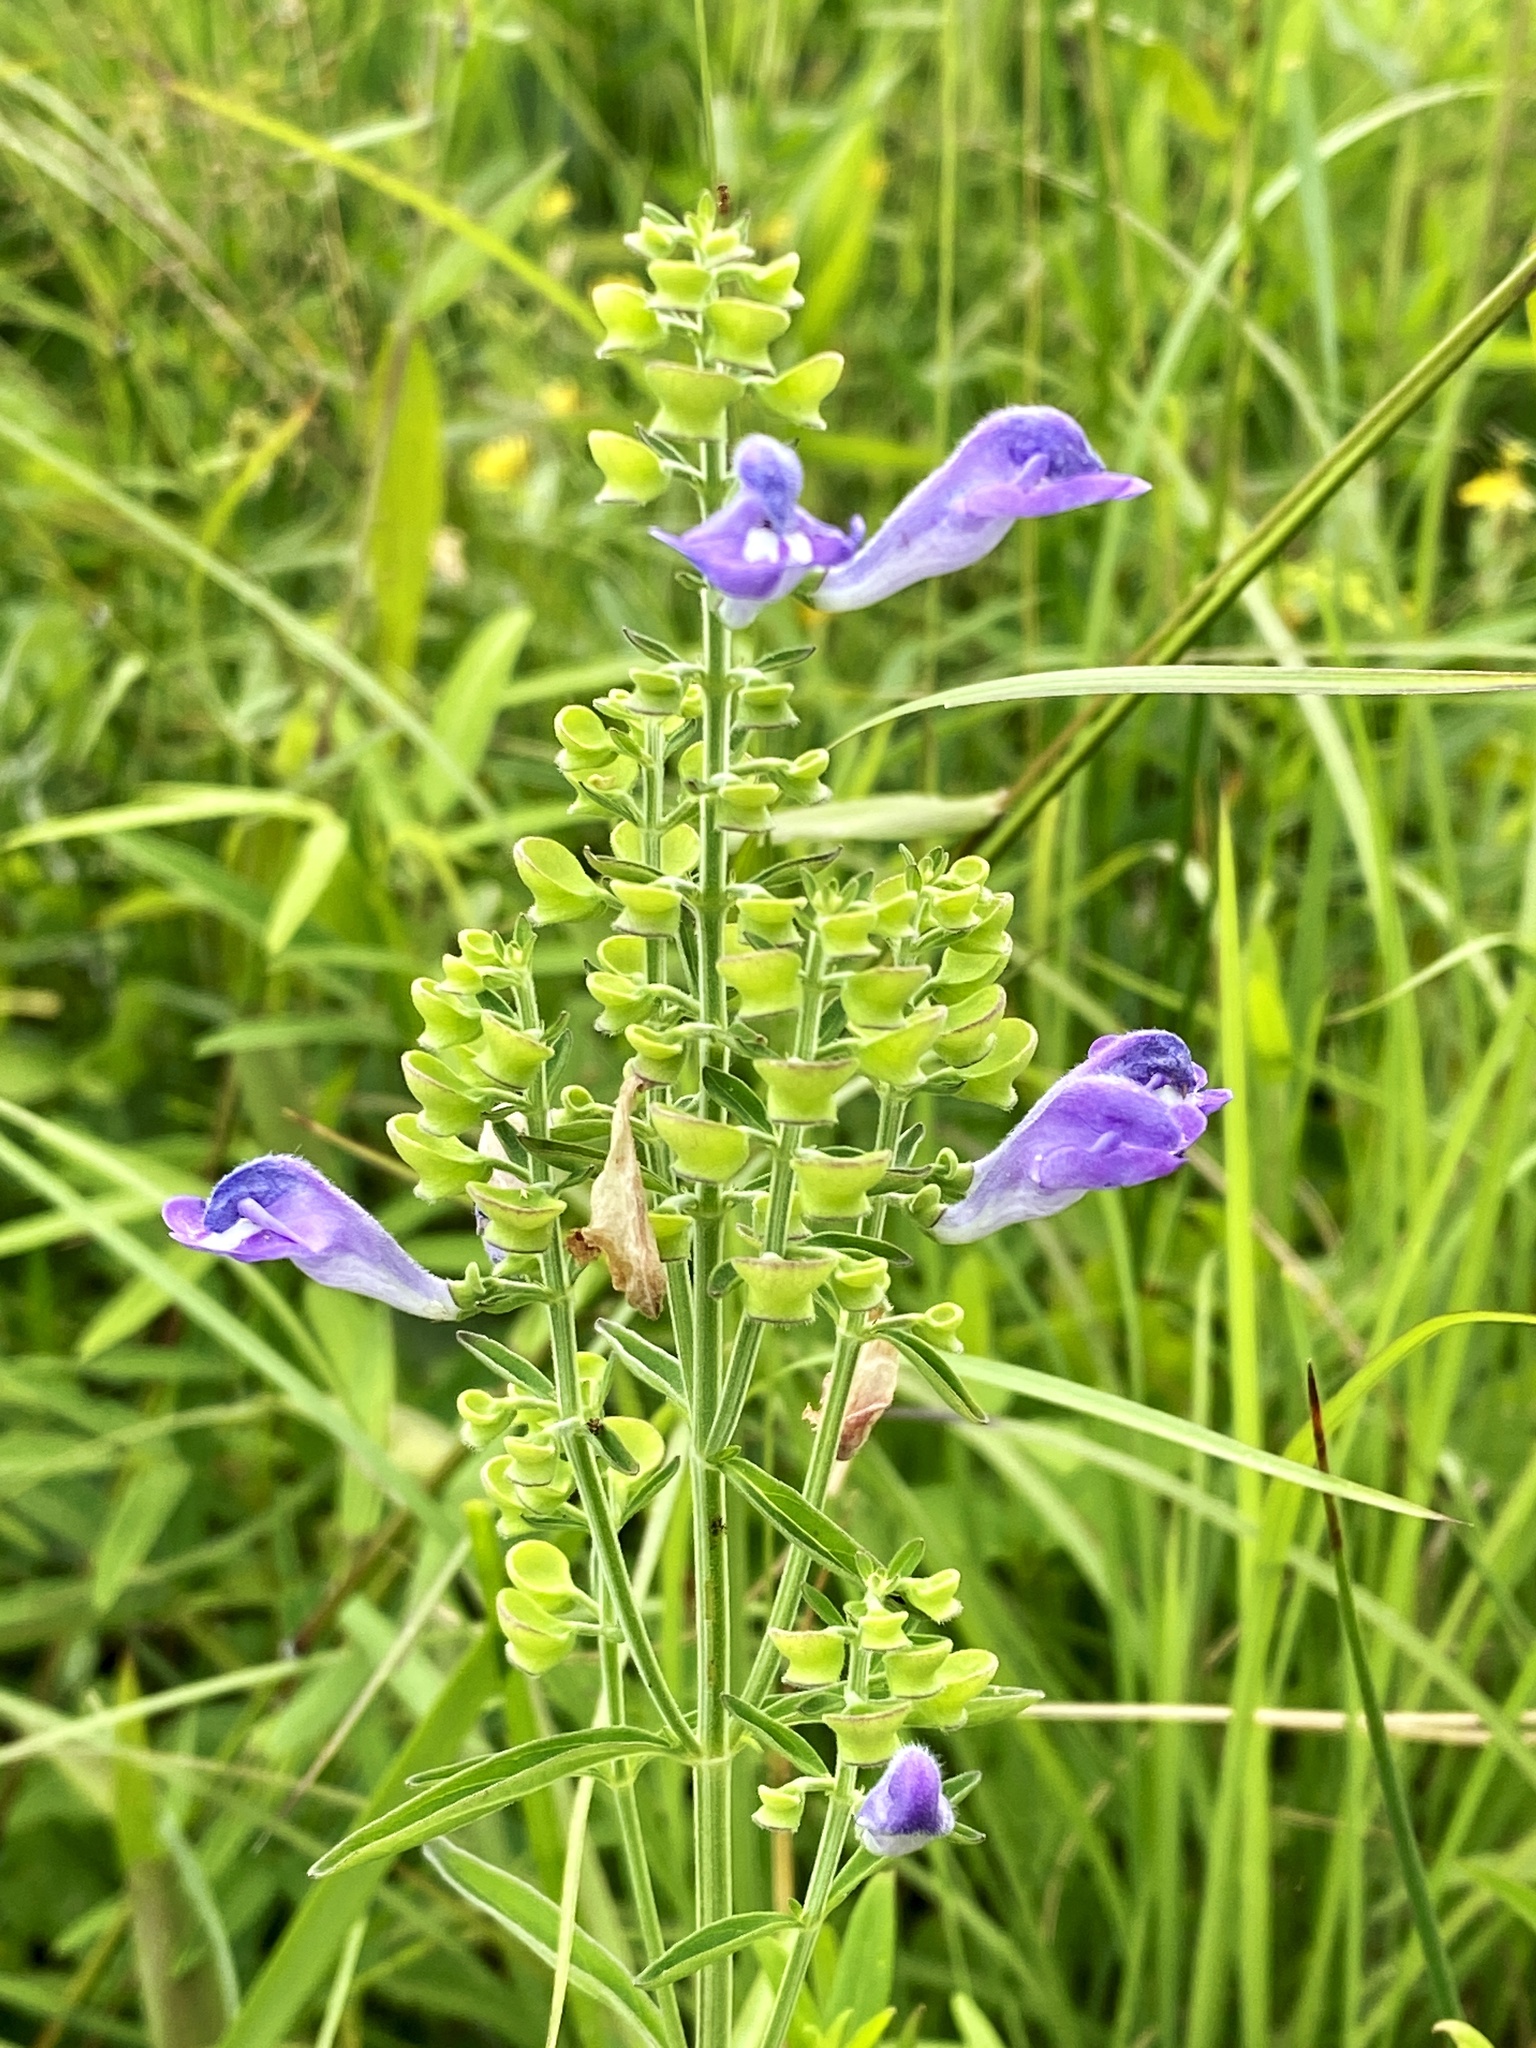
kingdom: Plantae
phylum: Tracheophyta
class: Magnoliopsida
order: Lamiales
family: Lamiaceae
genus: Scutellaria
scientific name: Scutellaria integrifolia
